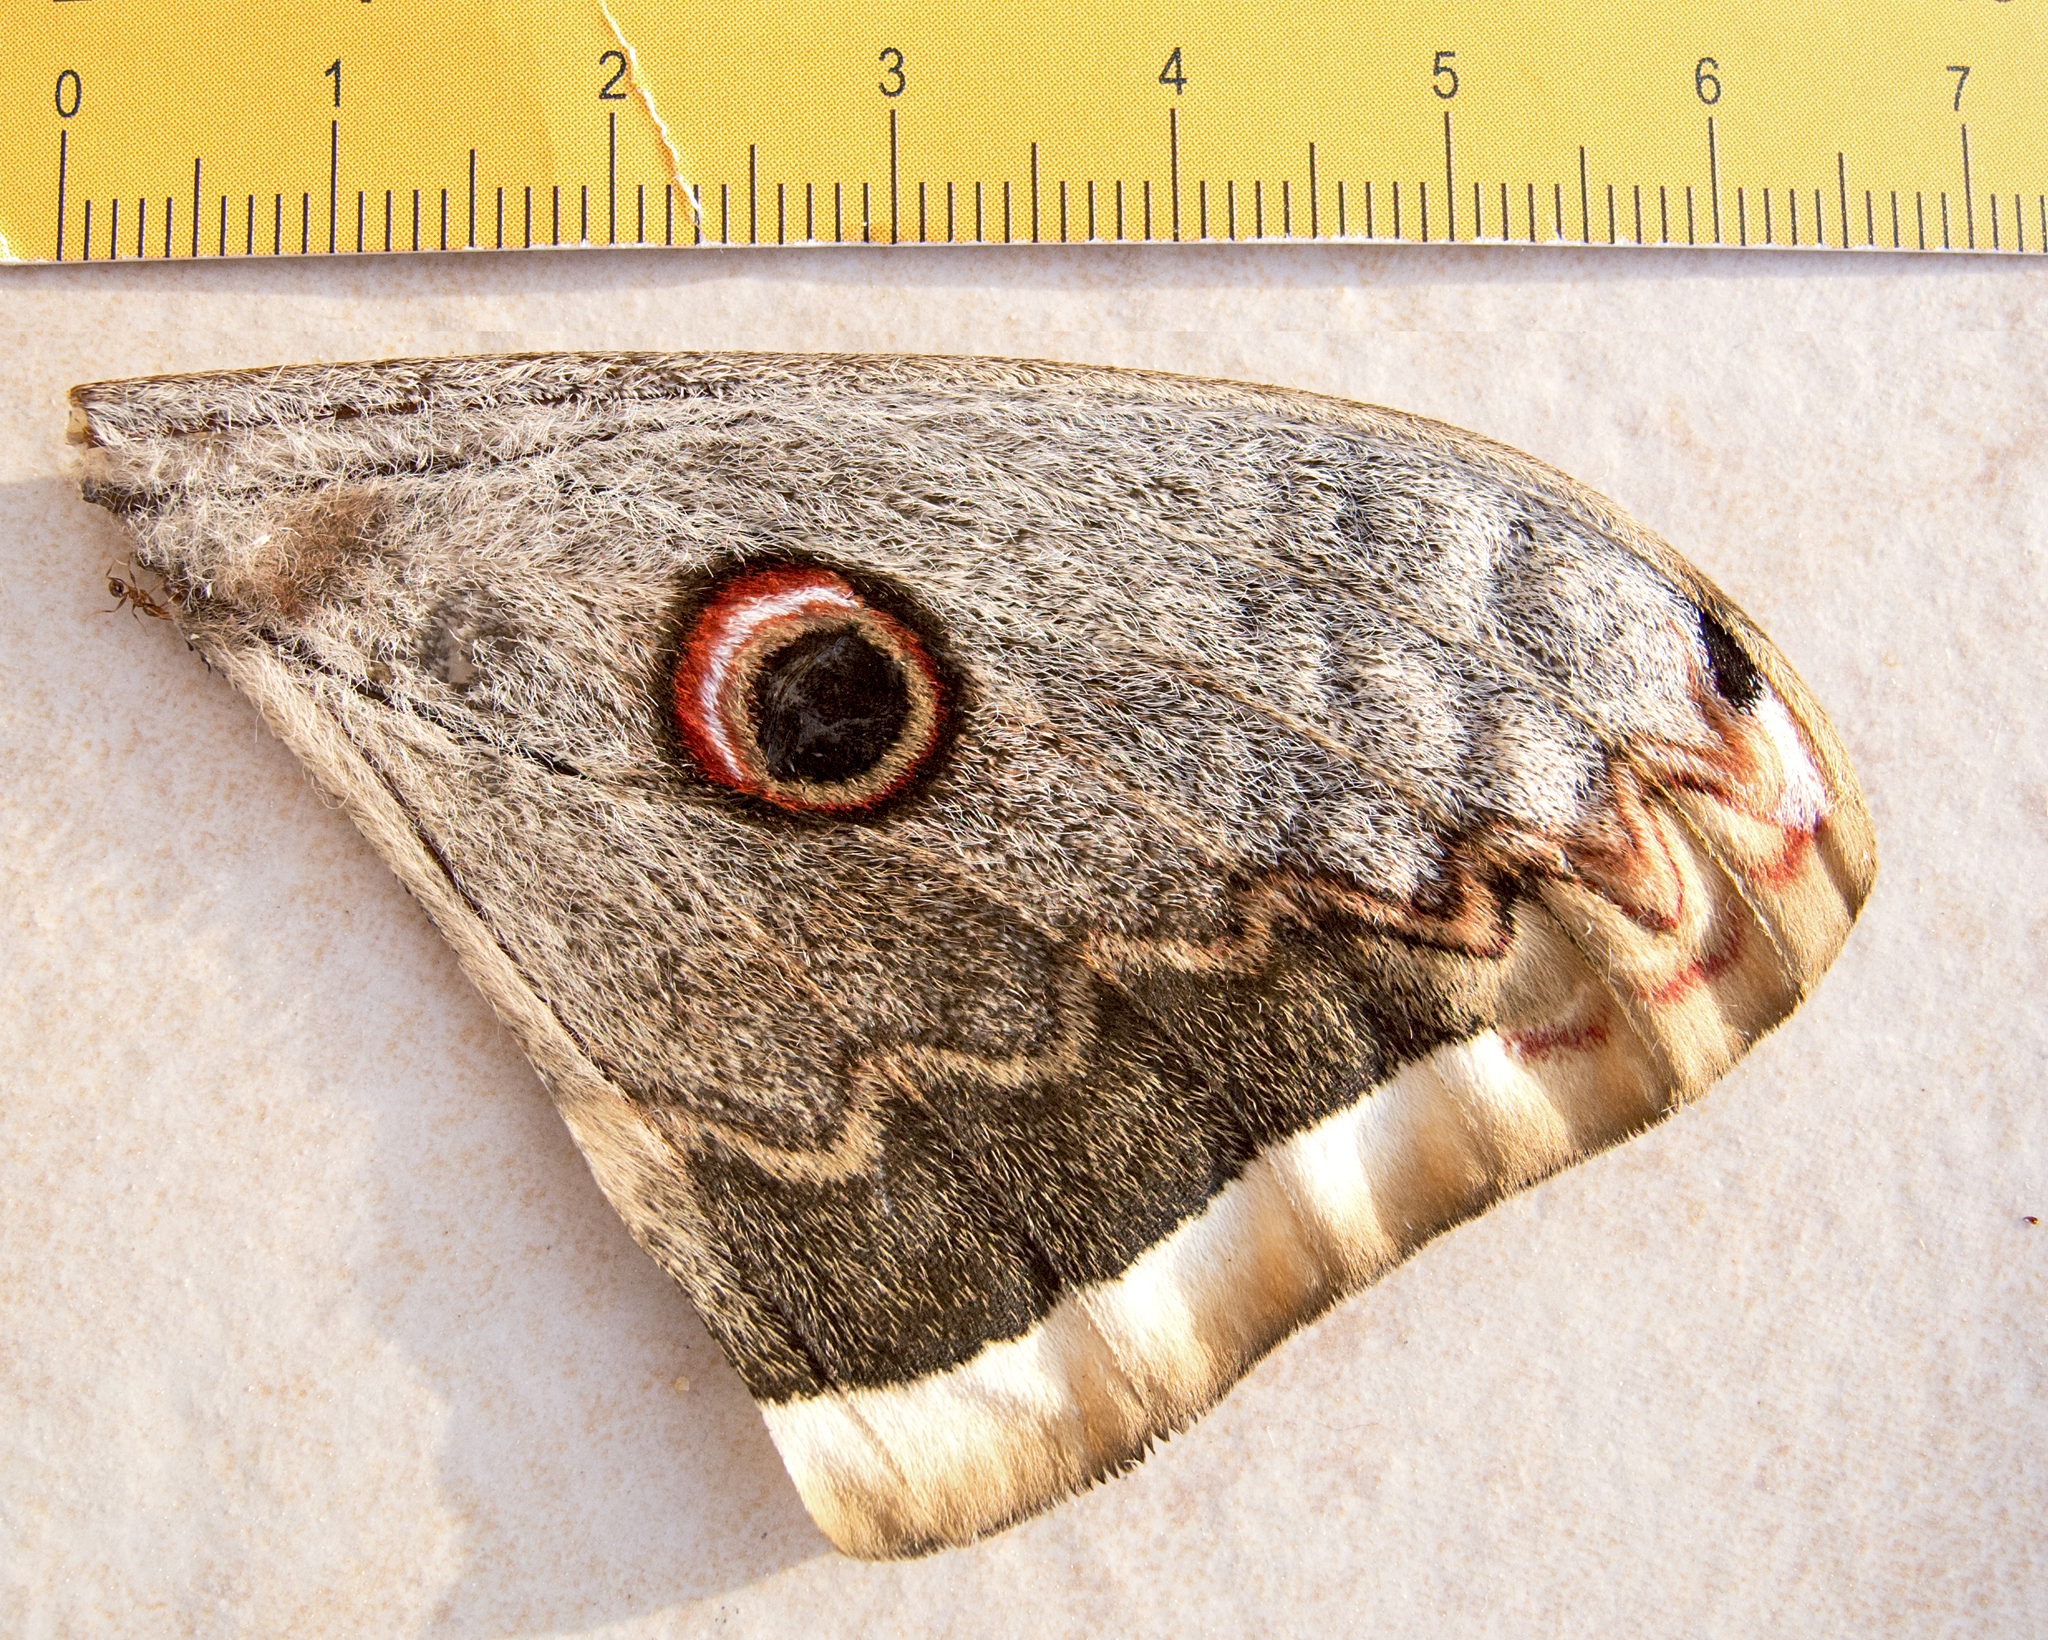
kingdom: Animalia
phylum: Arthropoda
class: Insecta
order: Lepidoptera
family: Saturniidae
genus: Saturnia
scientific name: Saturnia pyri
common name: Great peacock moth
